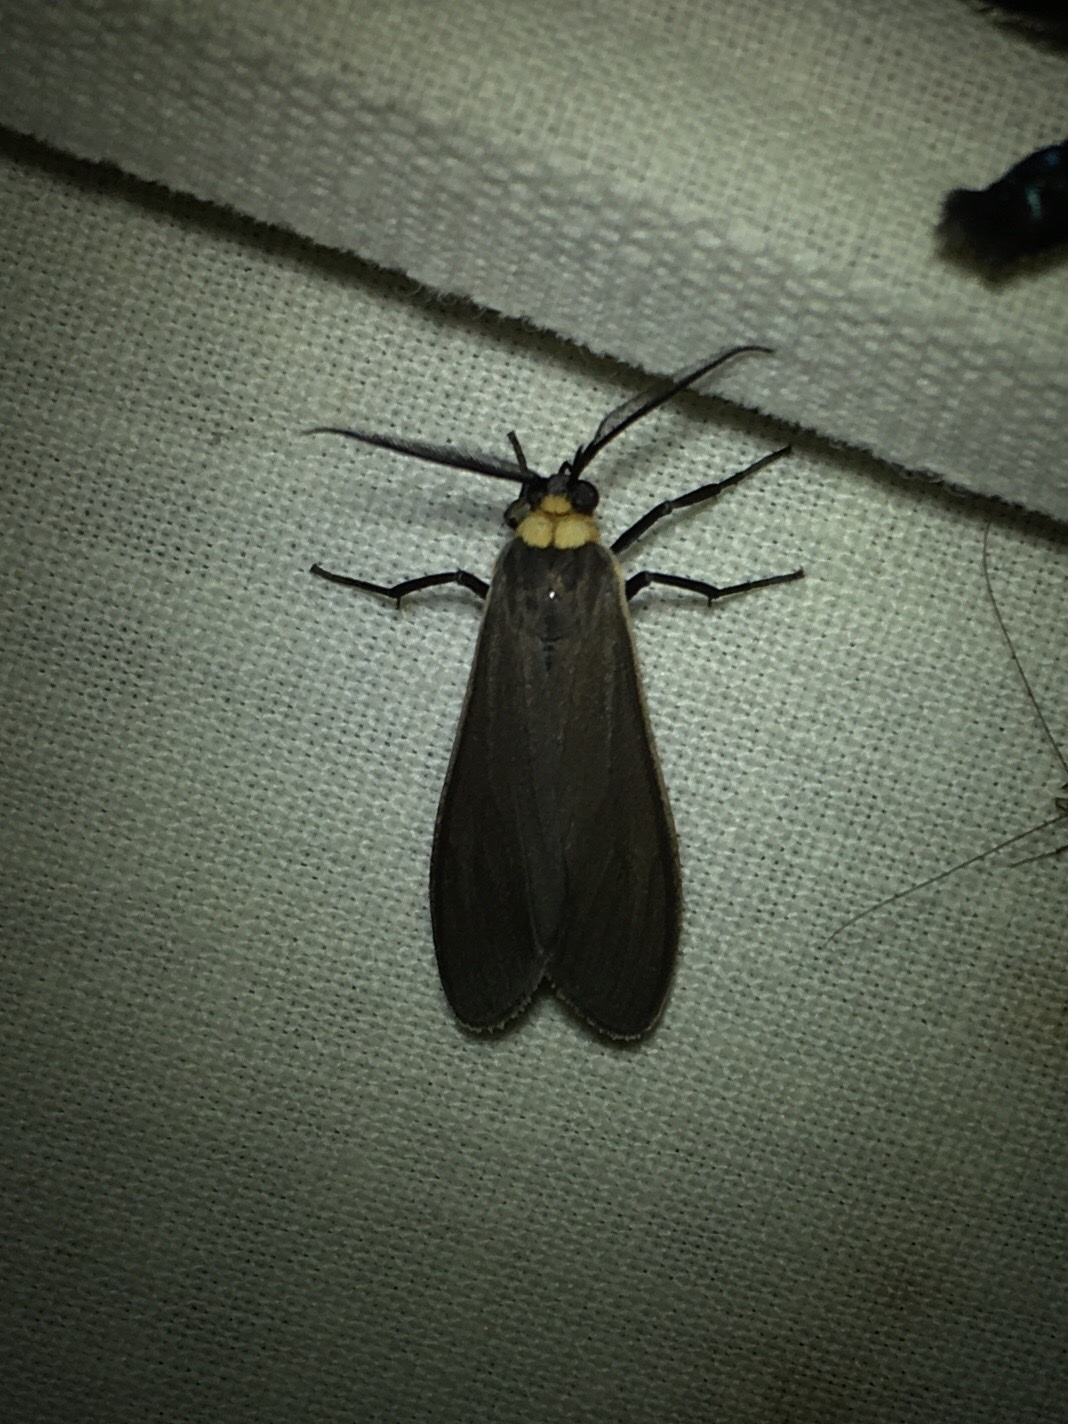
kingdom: Animalia
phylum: Arthropoda
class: Insecta
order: Lepidoptera
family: Erebidae
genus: Cisseps
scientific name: Cisseps fulvicollis
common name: Yellow-collared scape moth
